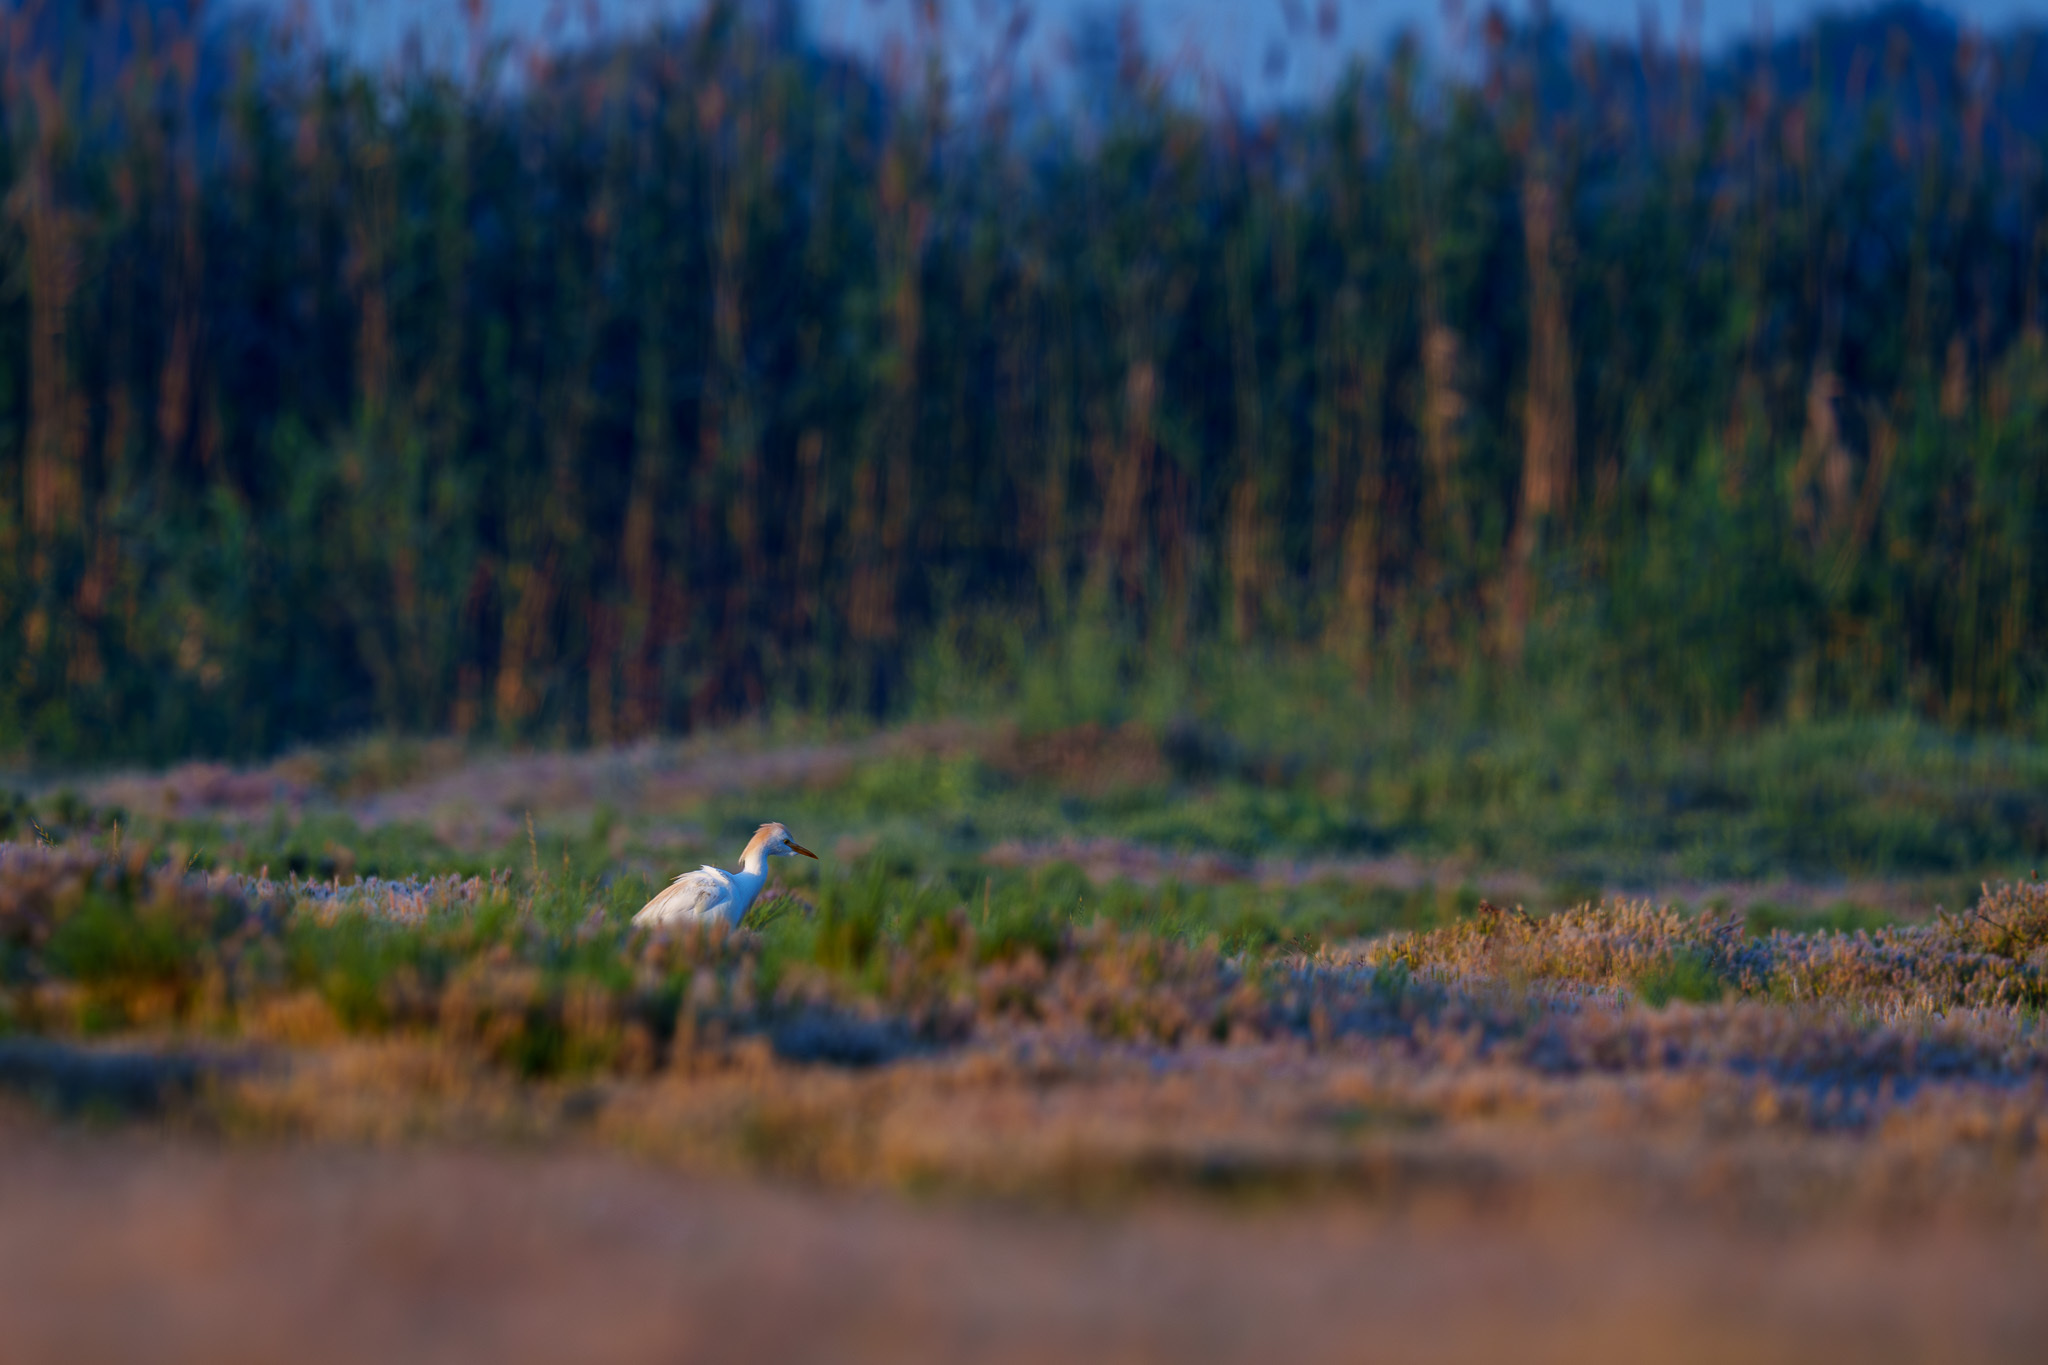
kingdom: Animalia
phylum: Chordata
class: Aves
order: Pelecaniformes
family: Ardeidae
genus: Bubulcus
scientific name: Bubulcus ibis
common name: Cattle egret
